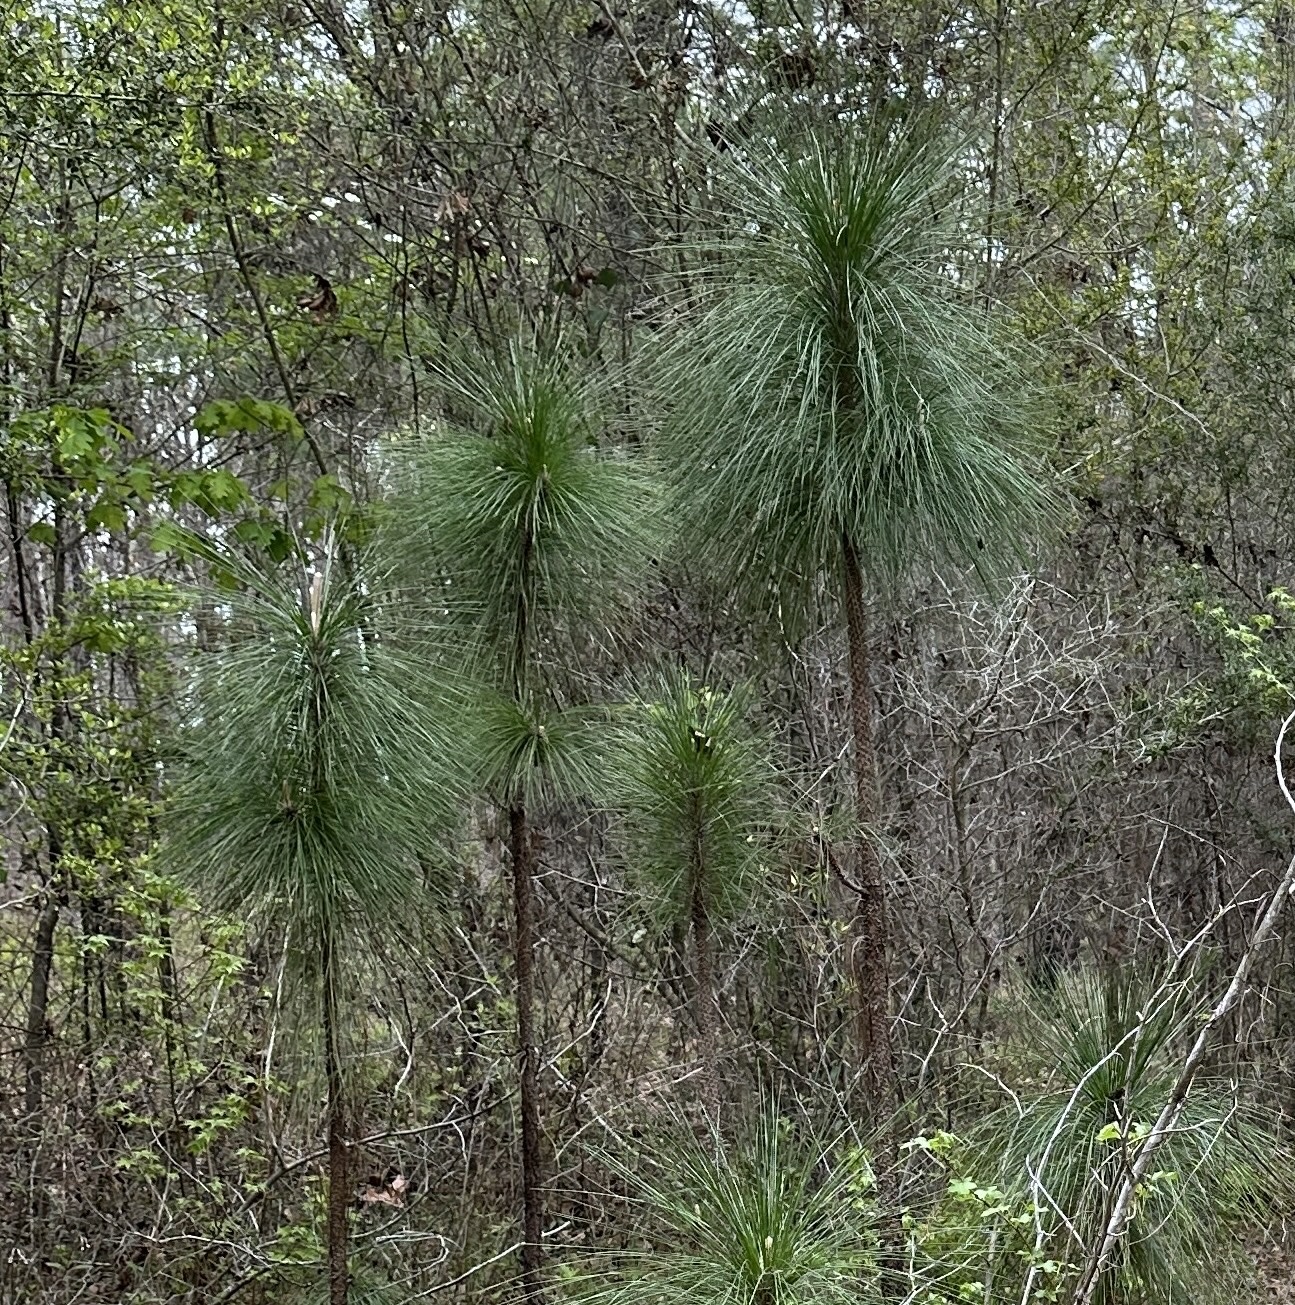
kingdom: Plantae
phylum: Tracheophyta
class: Pinopsida
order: Pinales
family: Pinaceae
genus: Pinus
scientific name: Pinus palustris
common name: Longleaf pine
